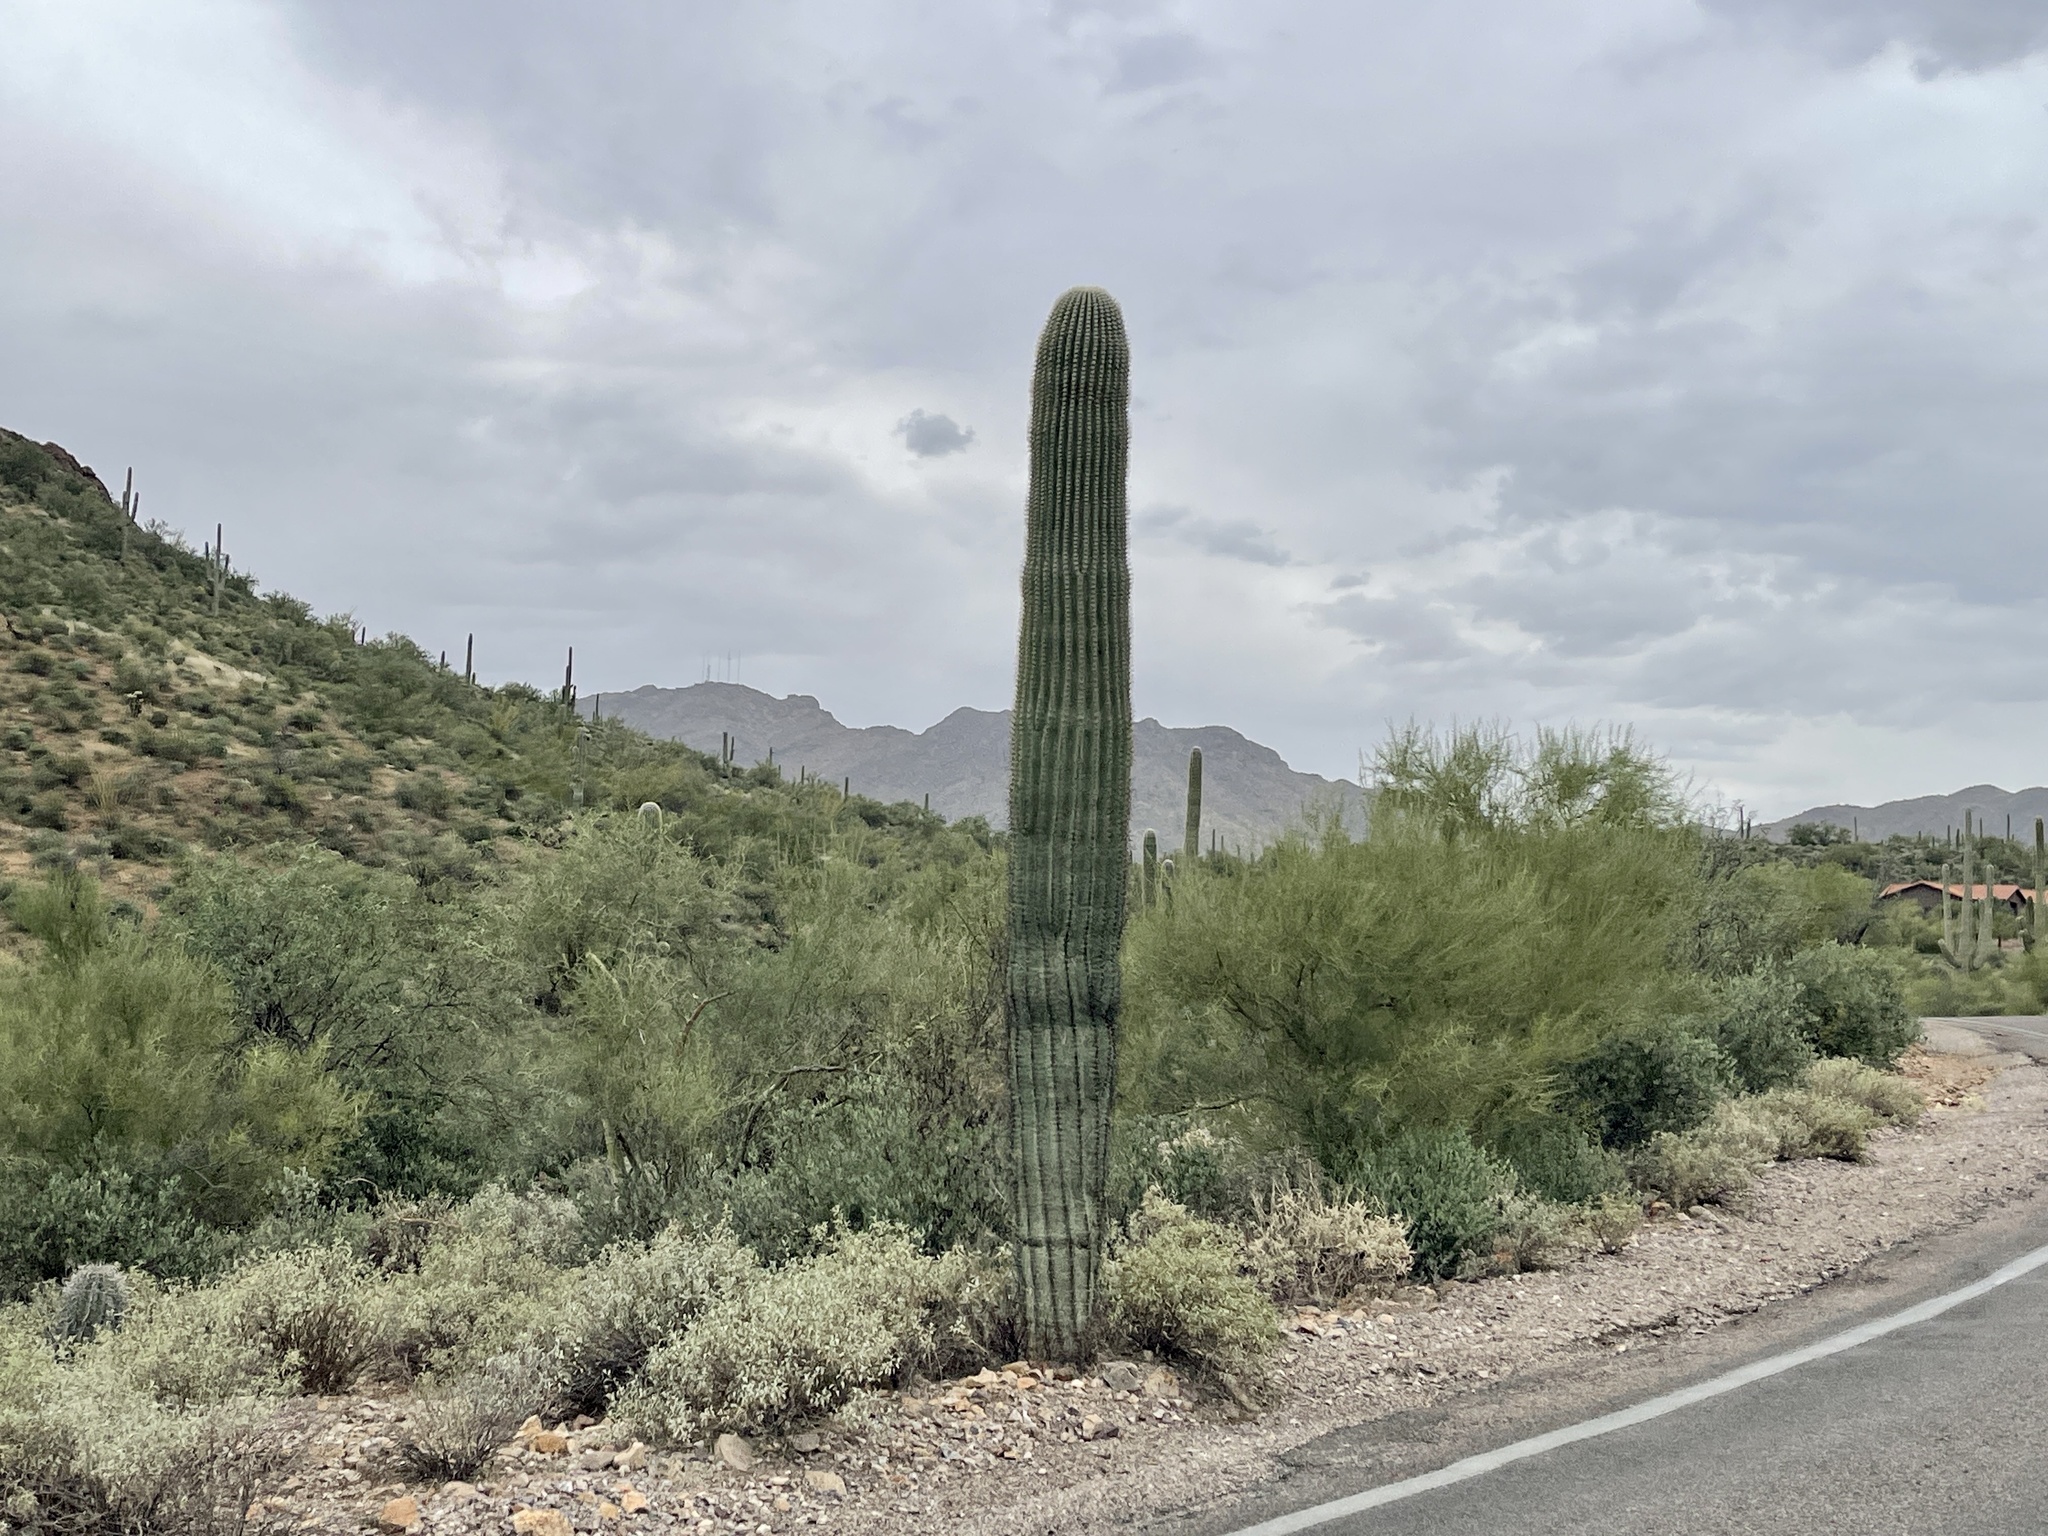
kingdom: Plantae
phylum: Tracheophyta
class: Magnoliopsida
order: Caryophyllales
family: Cactaceae
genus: Carnegiea
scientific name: Carnegiea gigantea
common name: Saguaro
